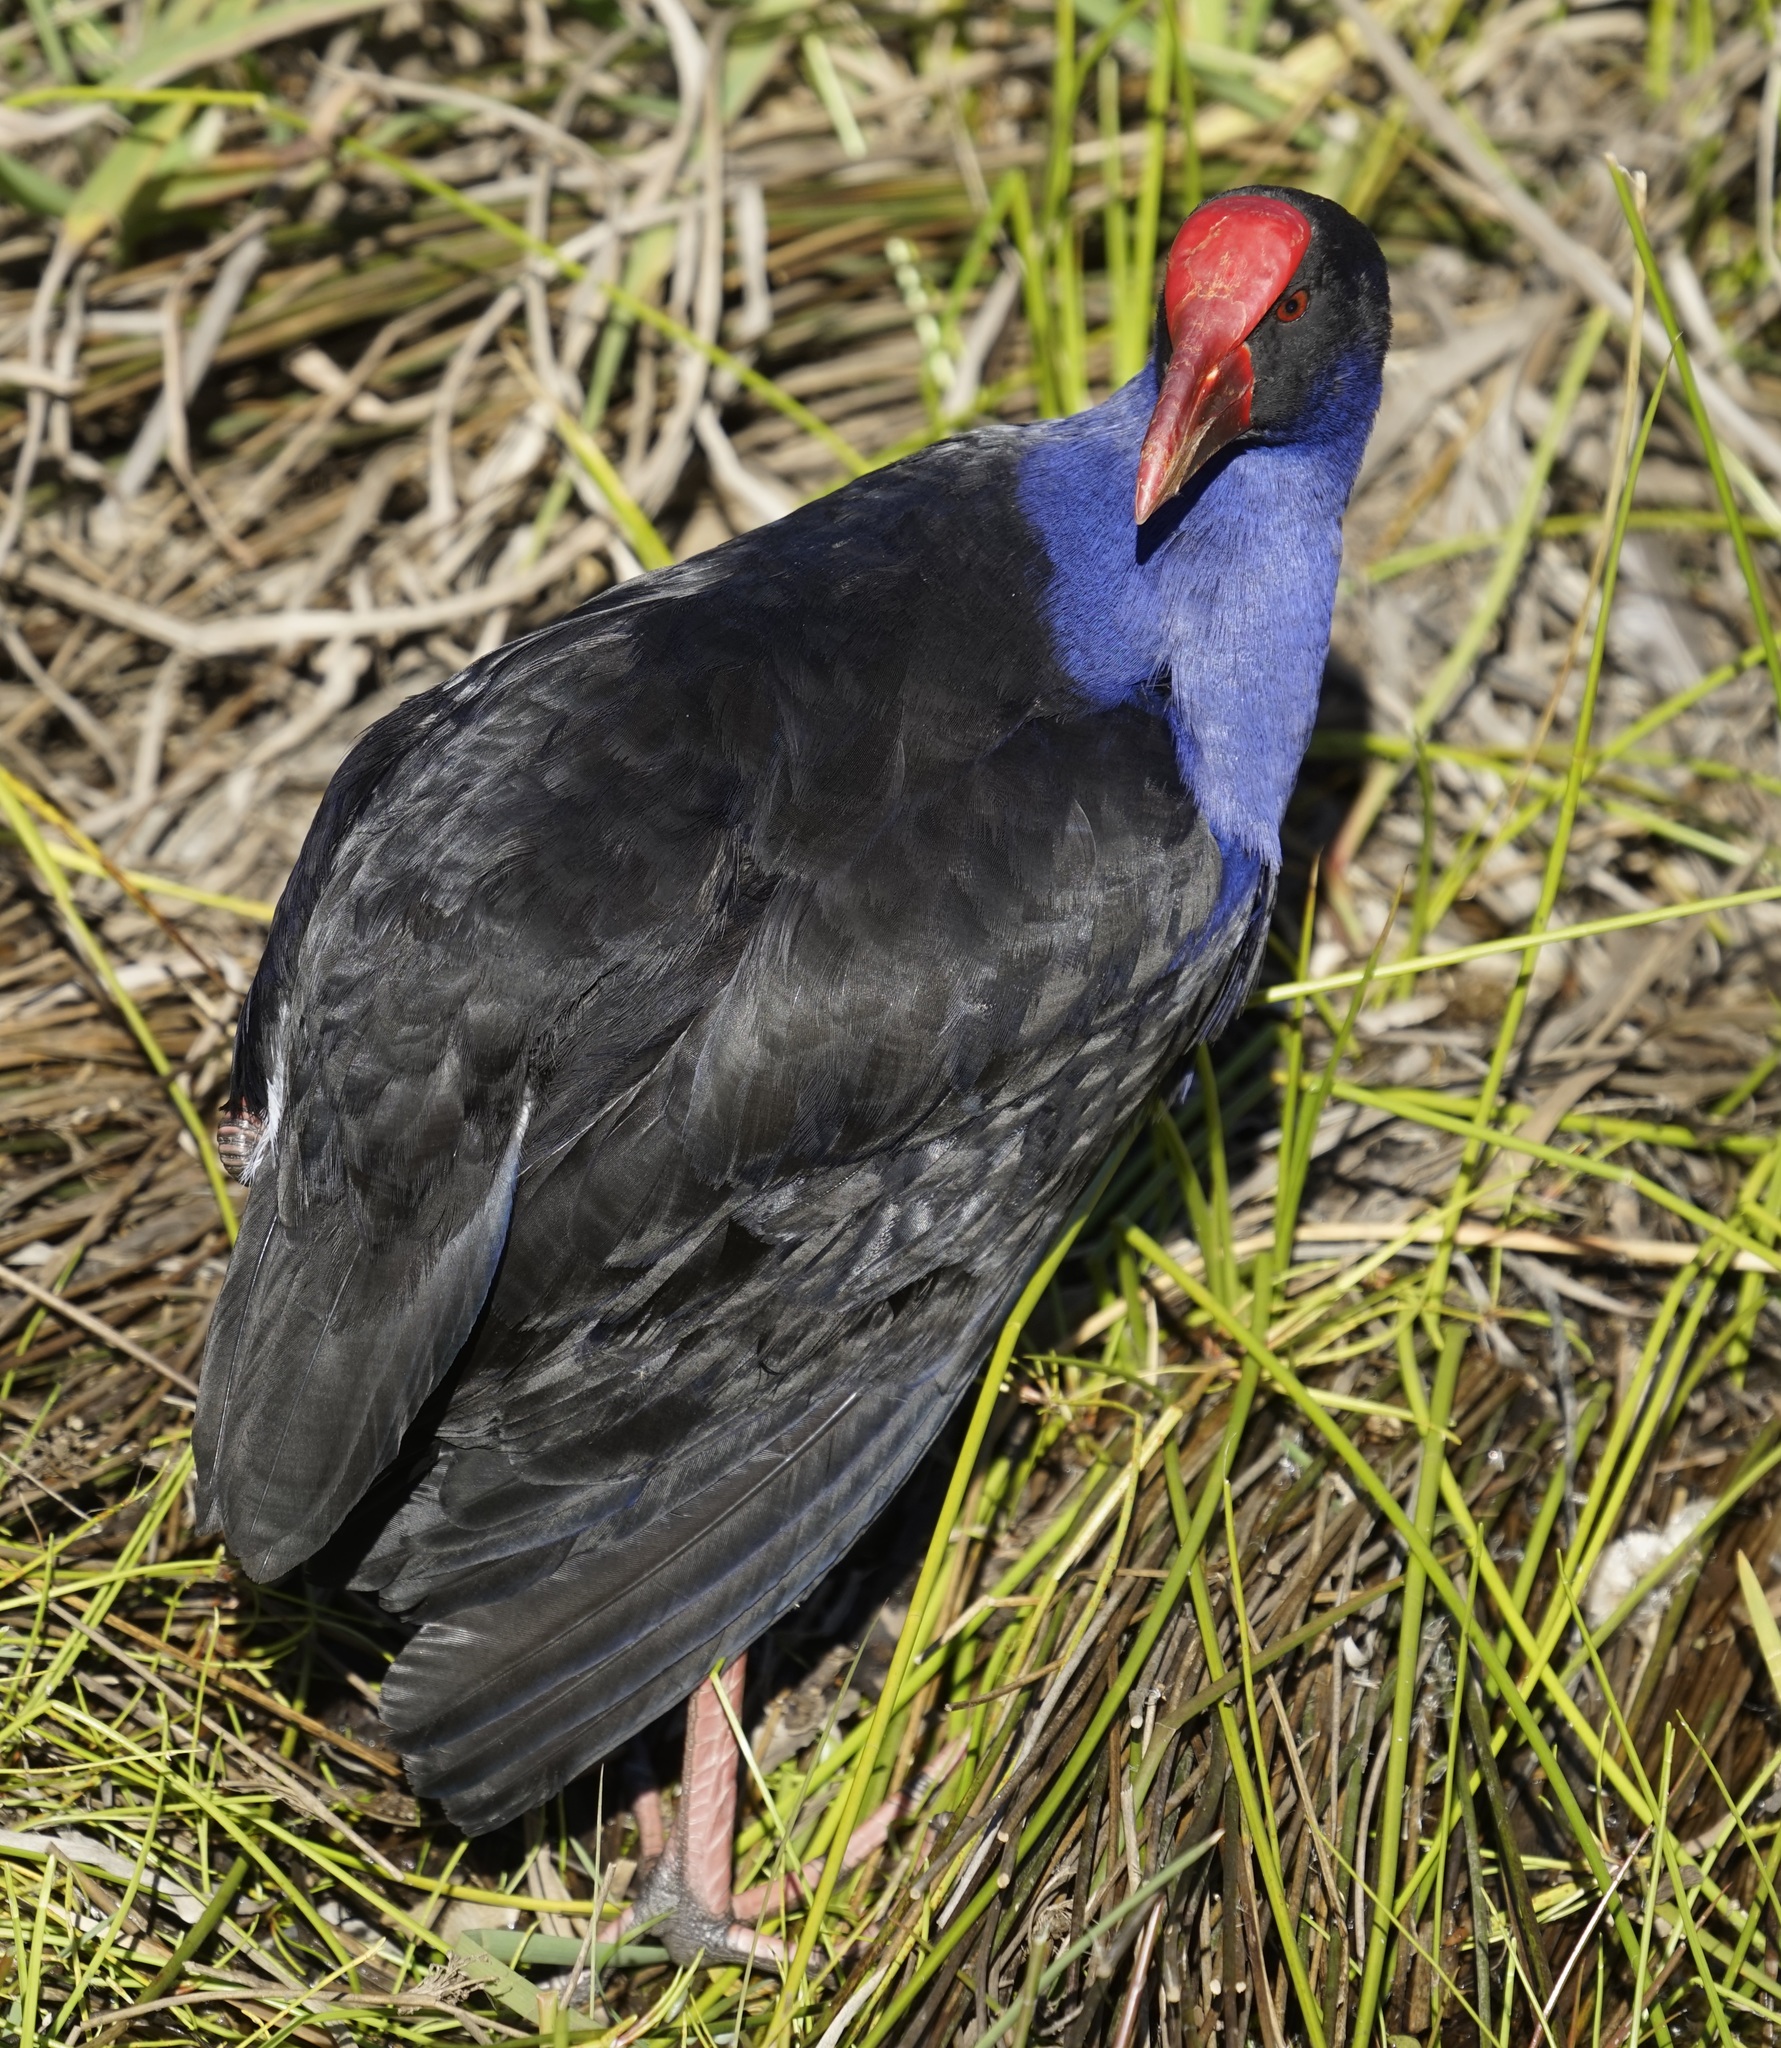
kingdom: Animalia
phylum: Chordata
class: Aves
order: Gruiformes
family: Rallidae
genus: Porphyrio
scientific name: Porphyrio melanotus
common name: Australasian swamphen
